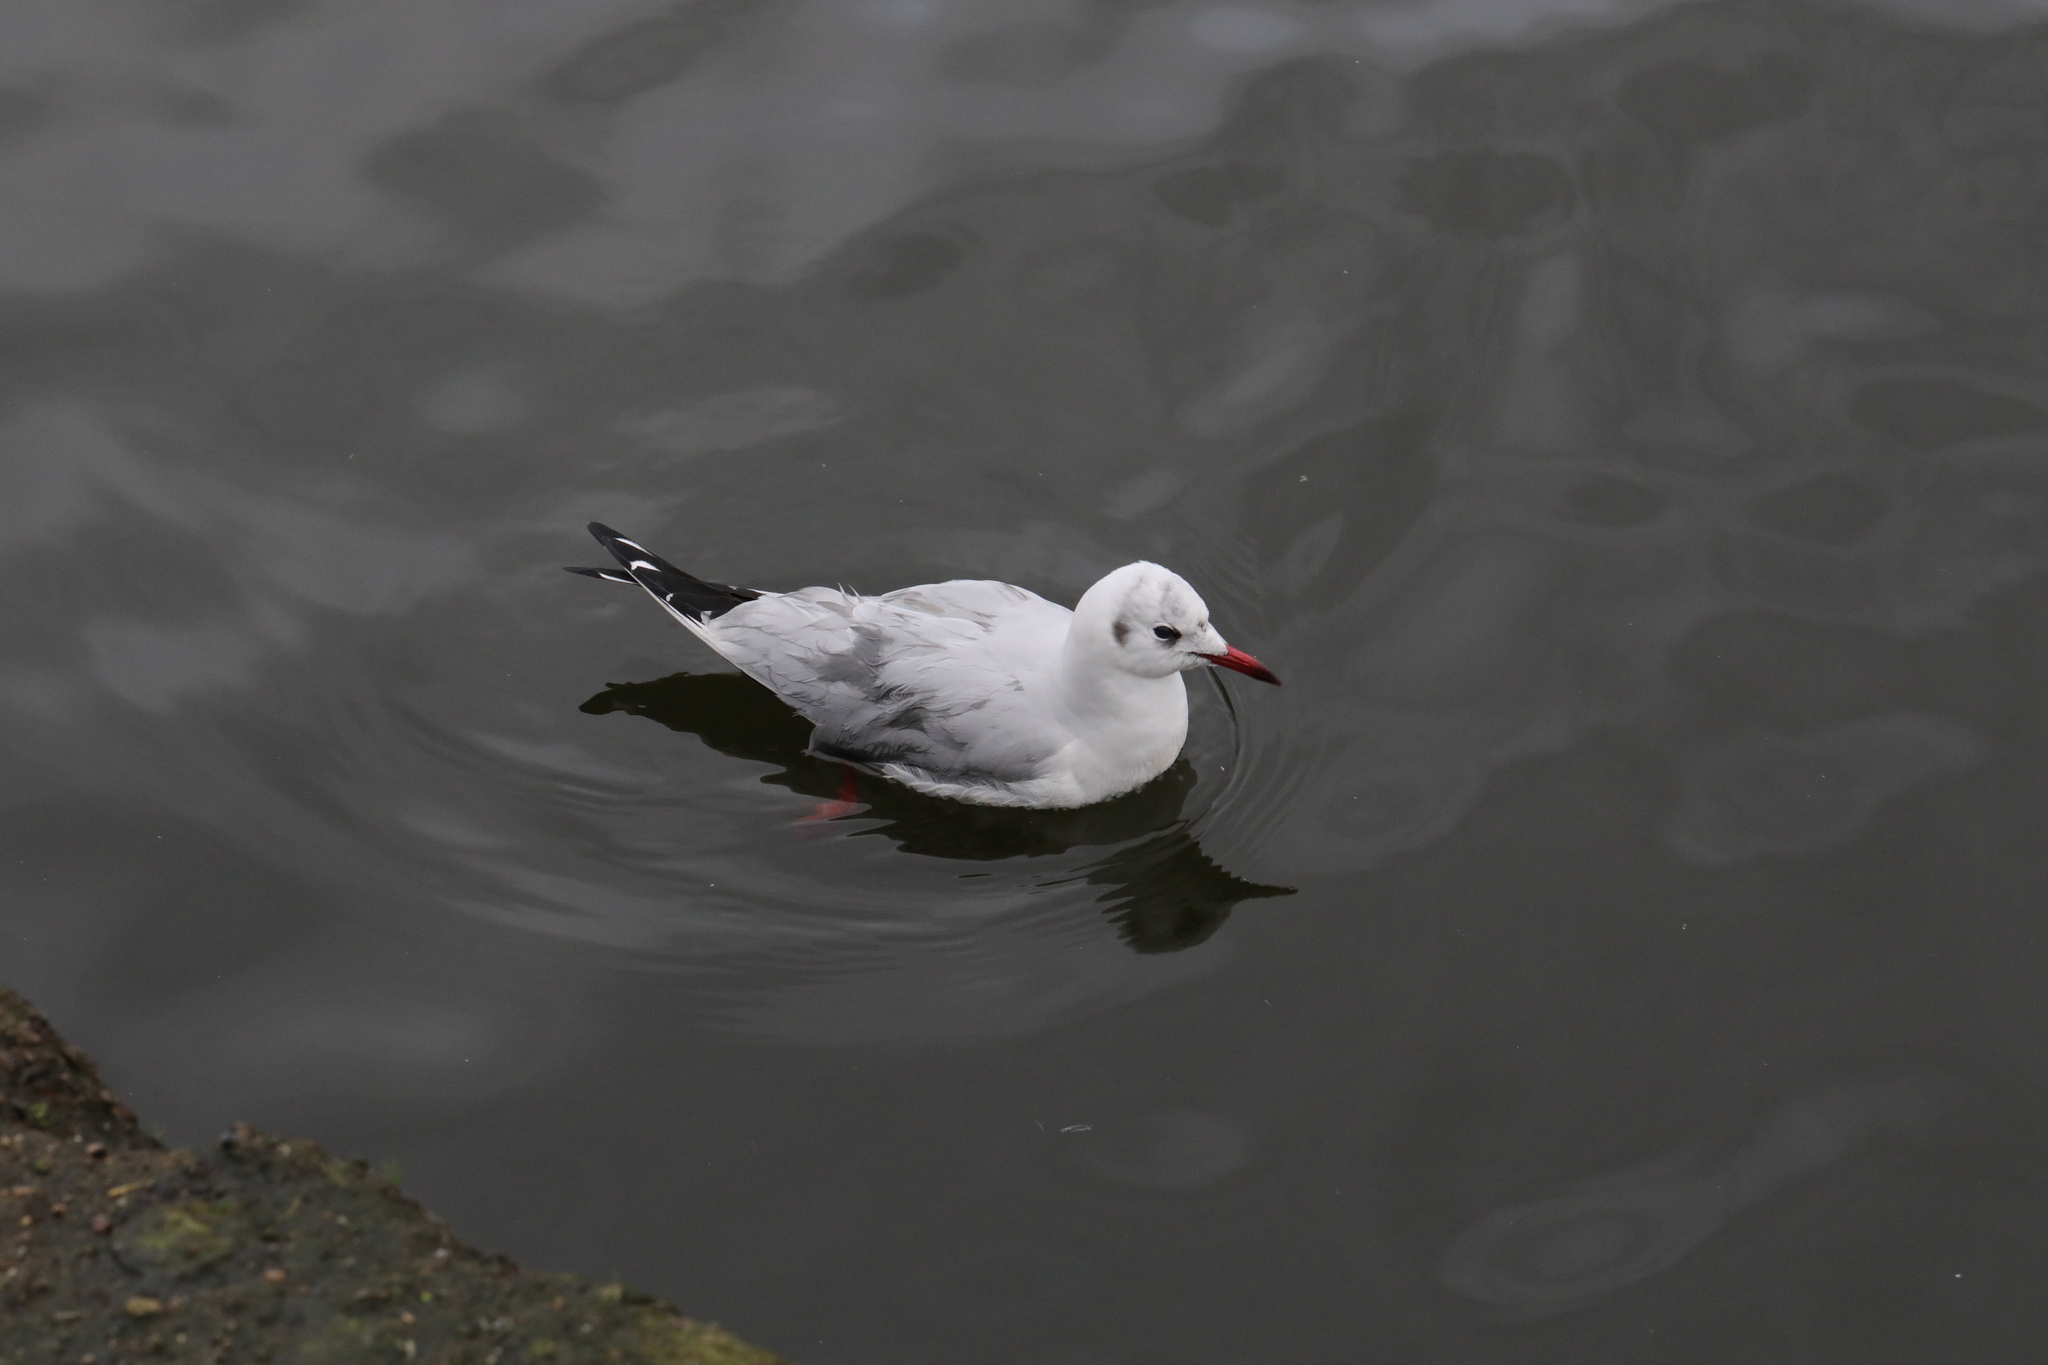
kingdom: Animalia
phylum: Chordata
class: Aves
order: Charadriiformes
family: Laridae
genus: Chroicocephalus
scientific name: Chroicocephalus ridibundus
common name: Black-headed gull
